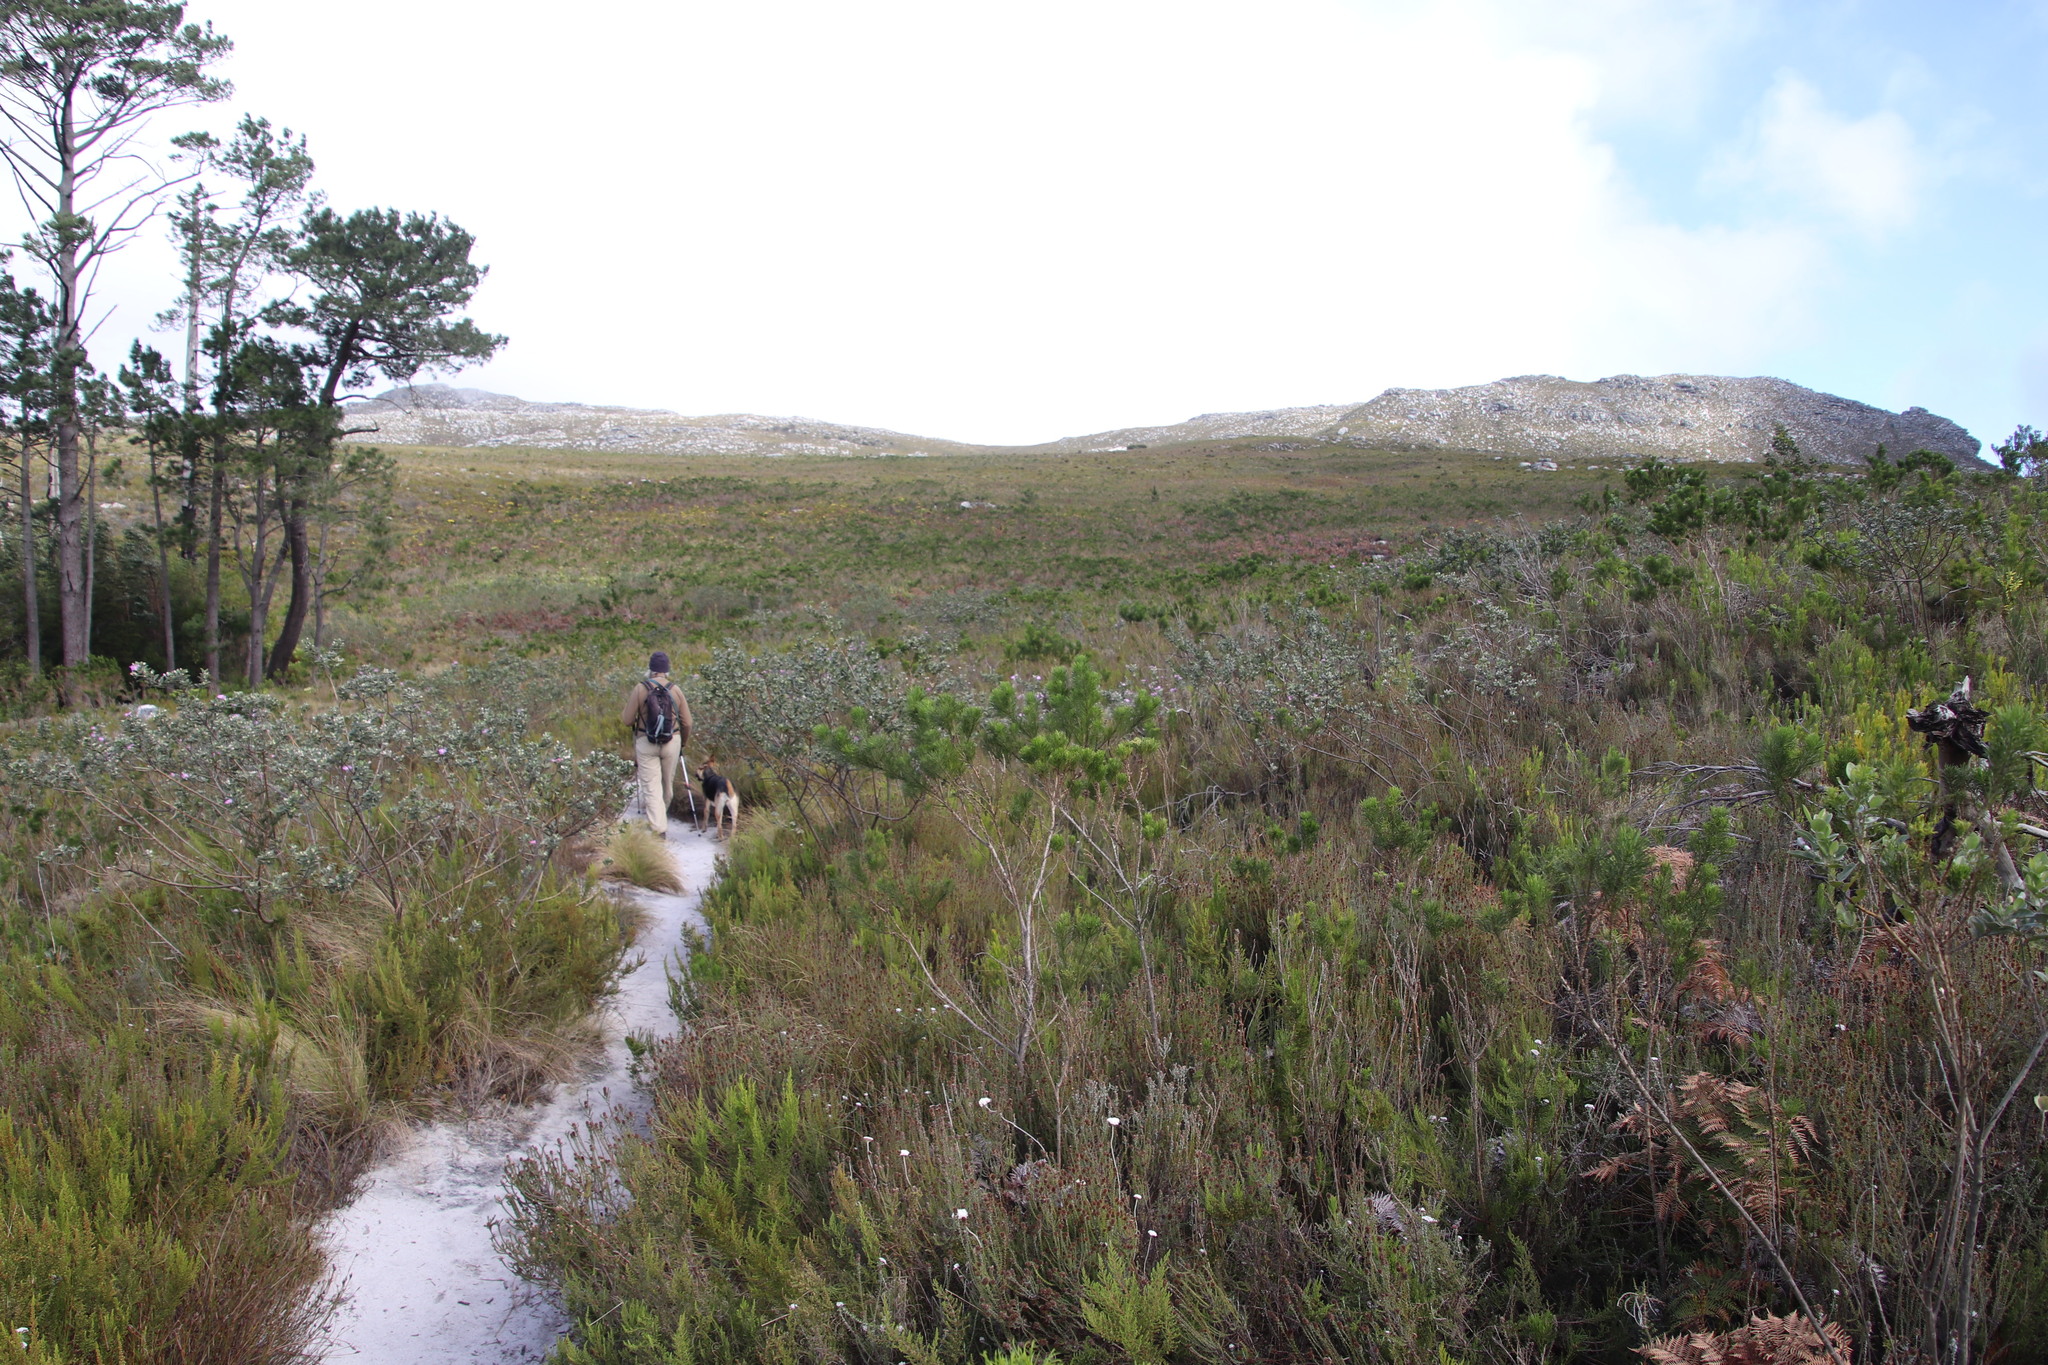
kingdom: Plantae
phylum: Tracheophyta
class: Magnoliopsida
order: Fabales
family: Fabaceae
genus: Psoralea
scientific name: Psoralea pinnata
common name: African scurfpea
